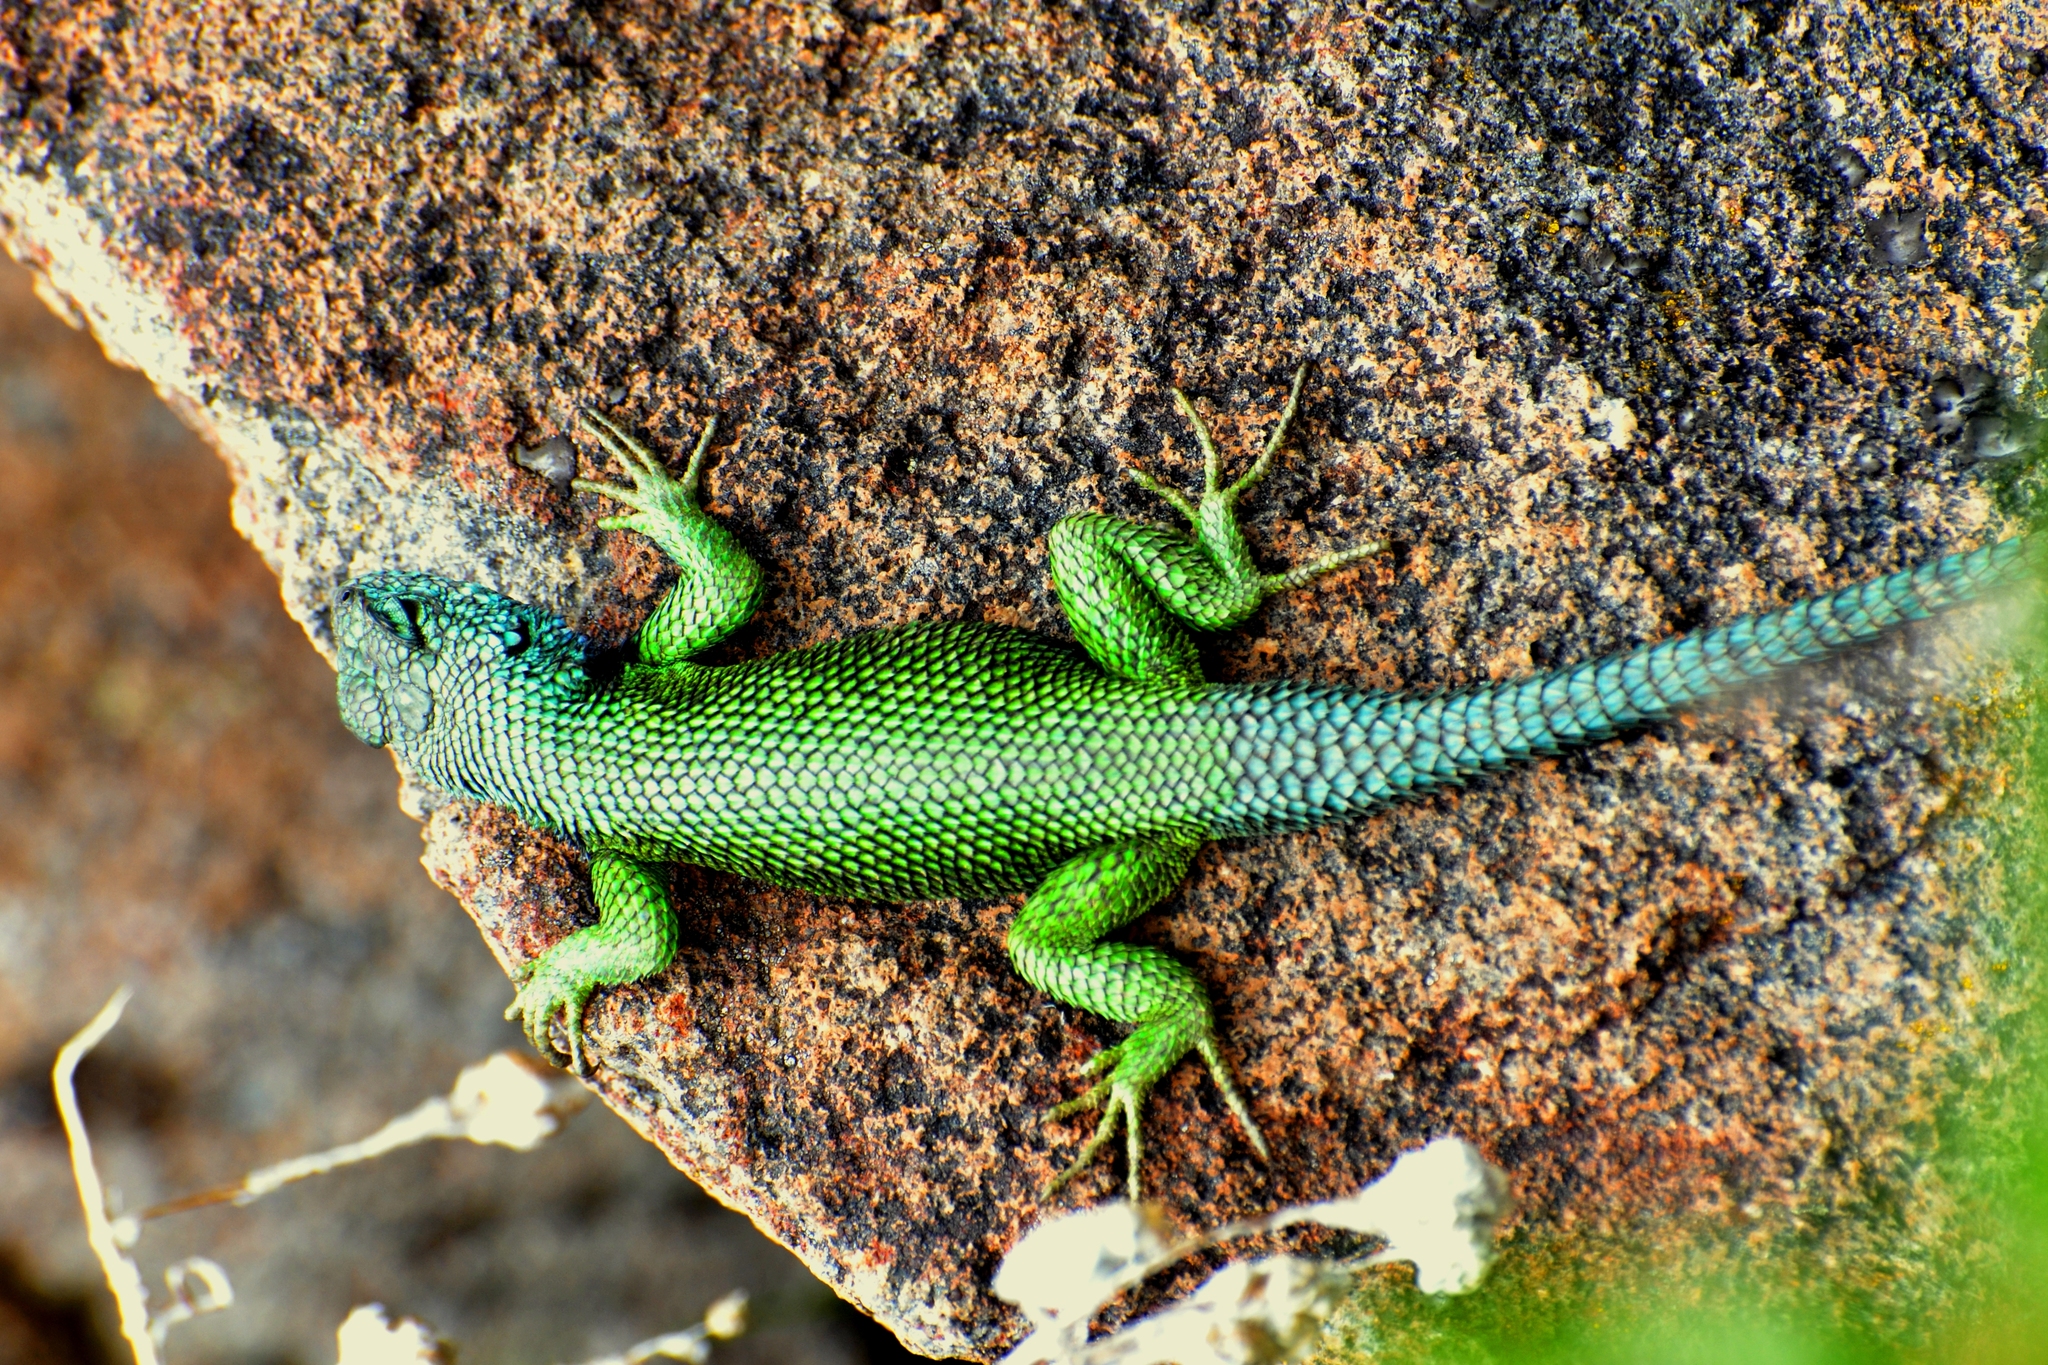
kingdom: Animalia
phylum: Chordata
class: Squamata
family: Phrynosomatidae
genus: Sceloporus
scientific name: Sceloporus smaragdinus
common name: Bocourt’s emerald lizard
